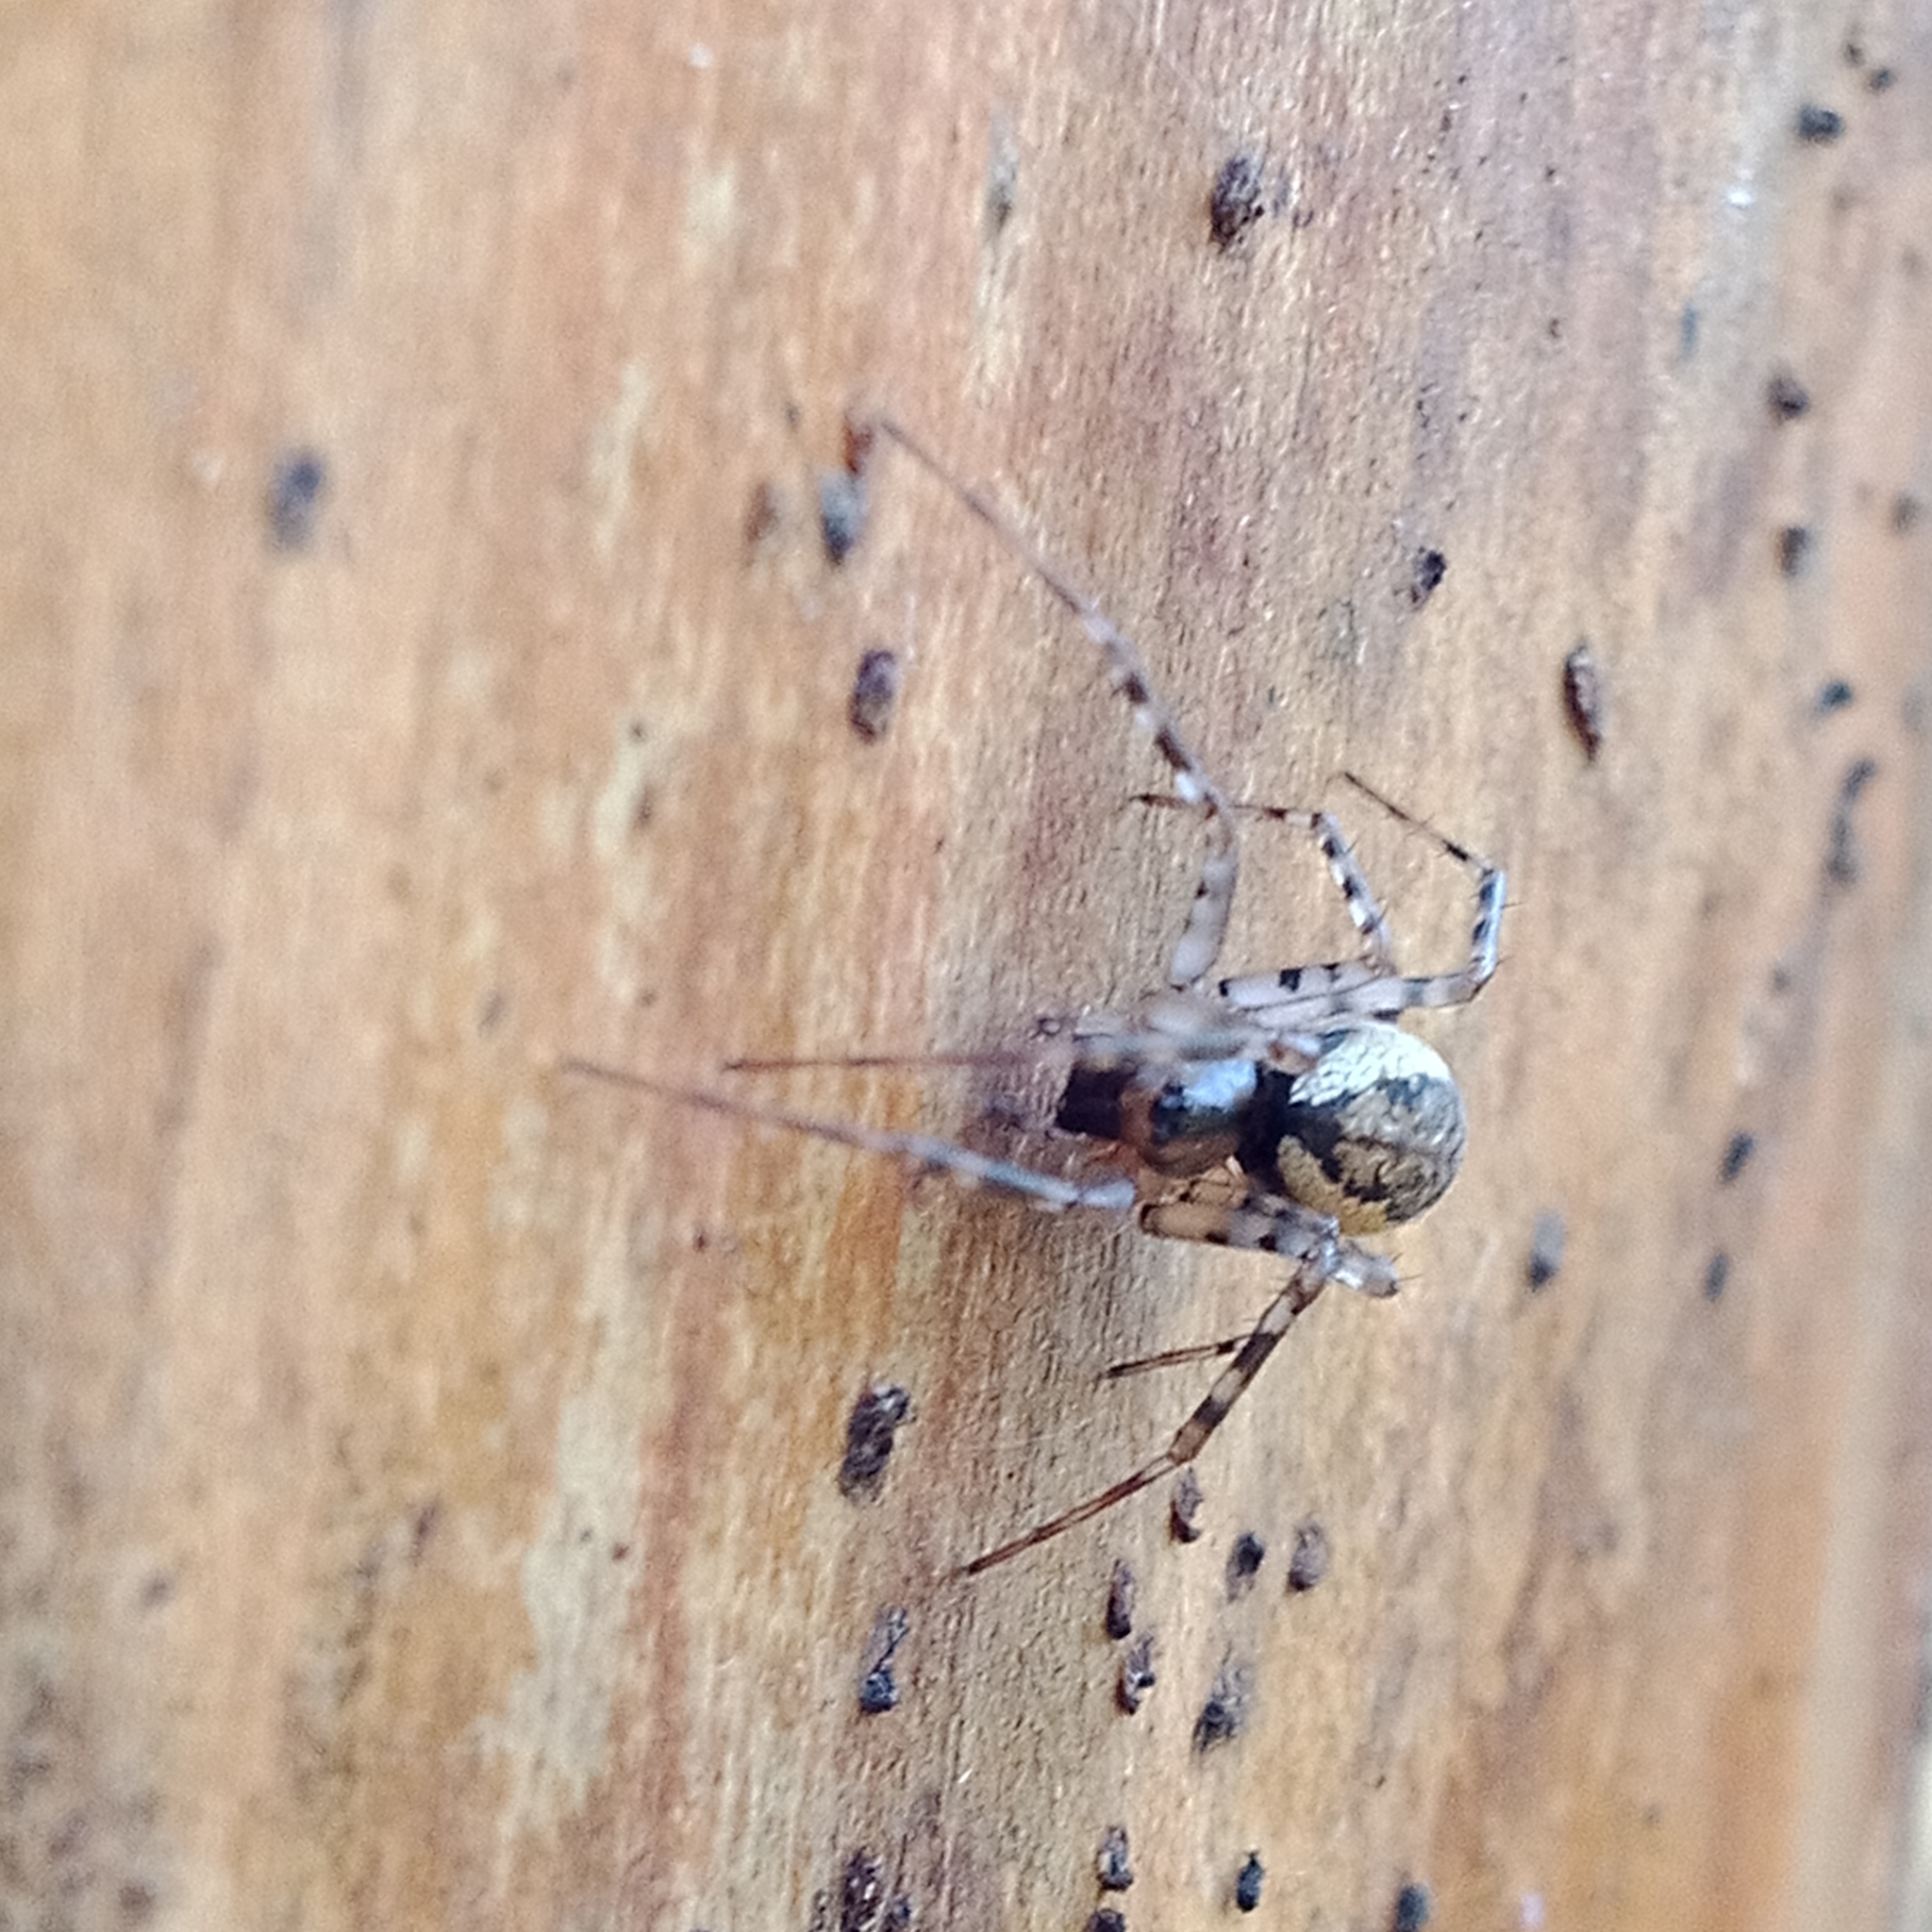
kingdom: Animalia
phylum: Arthropoda
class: Arachnida
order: Araneae
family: Linyphiidae
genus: Neriene
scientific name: Neriene montana
